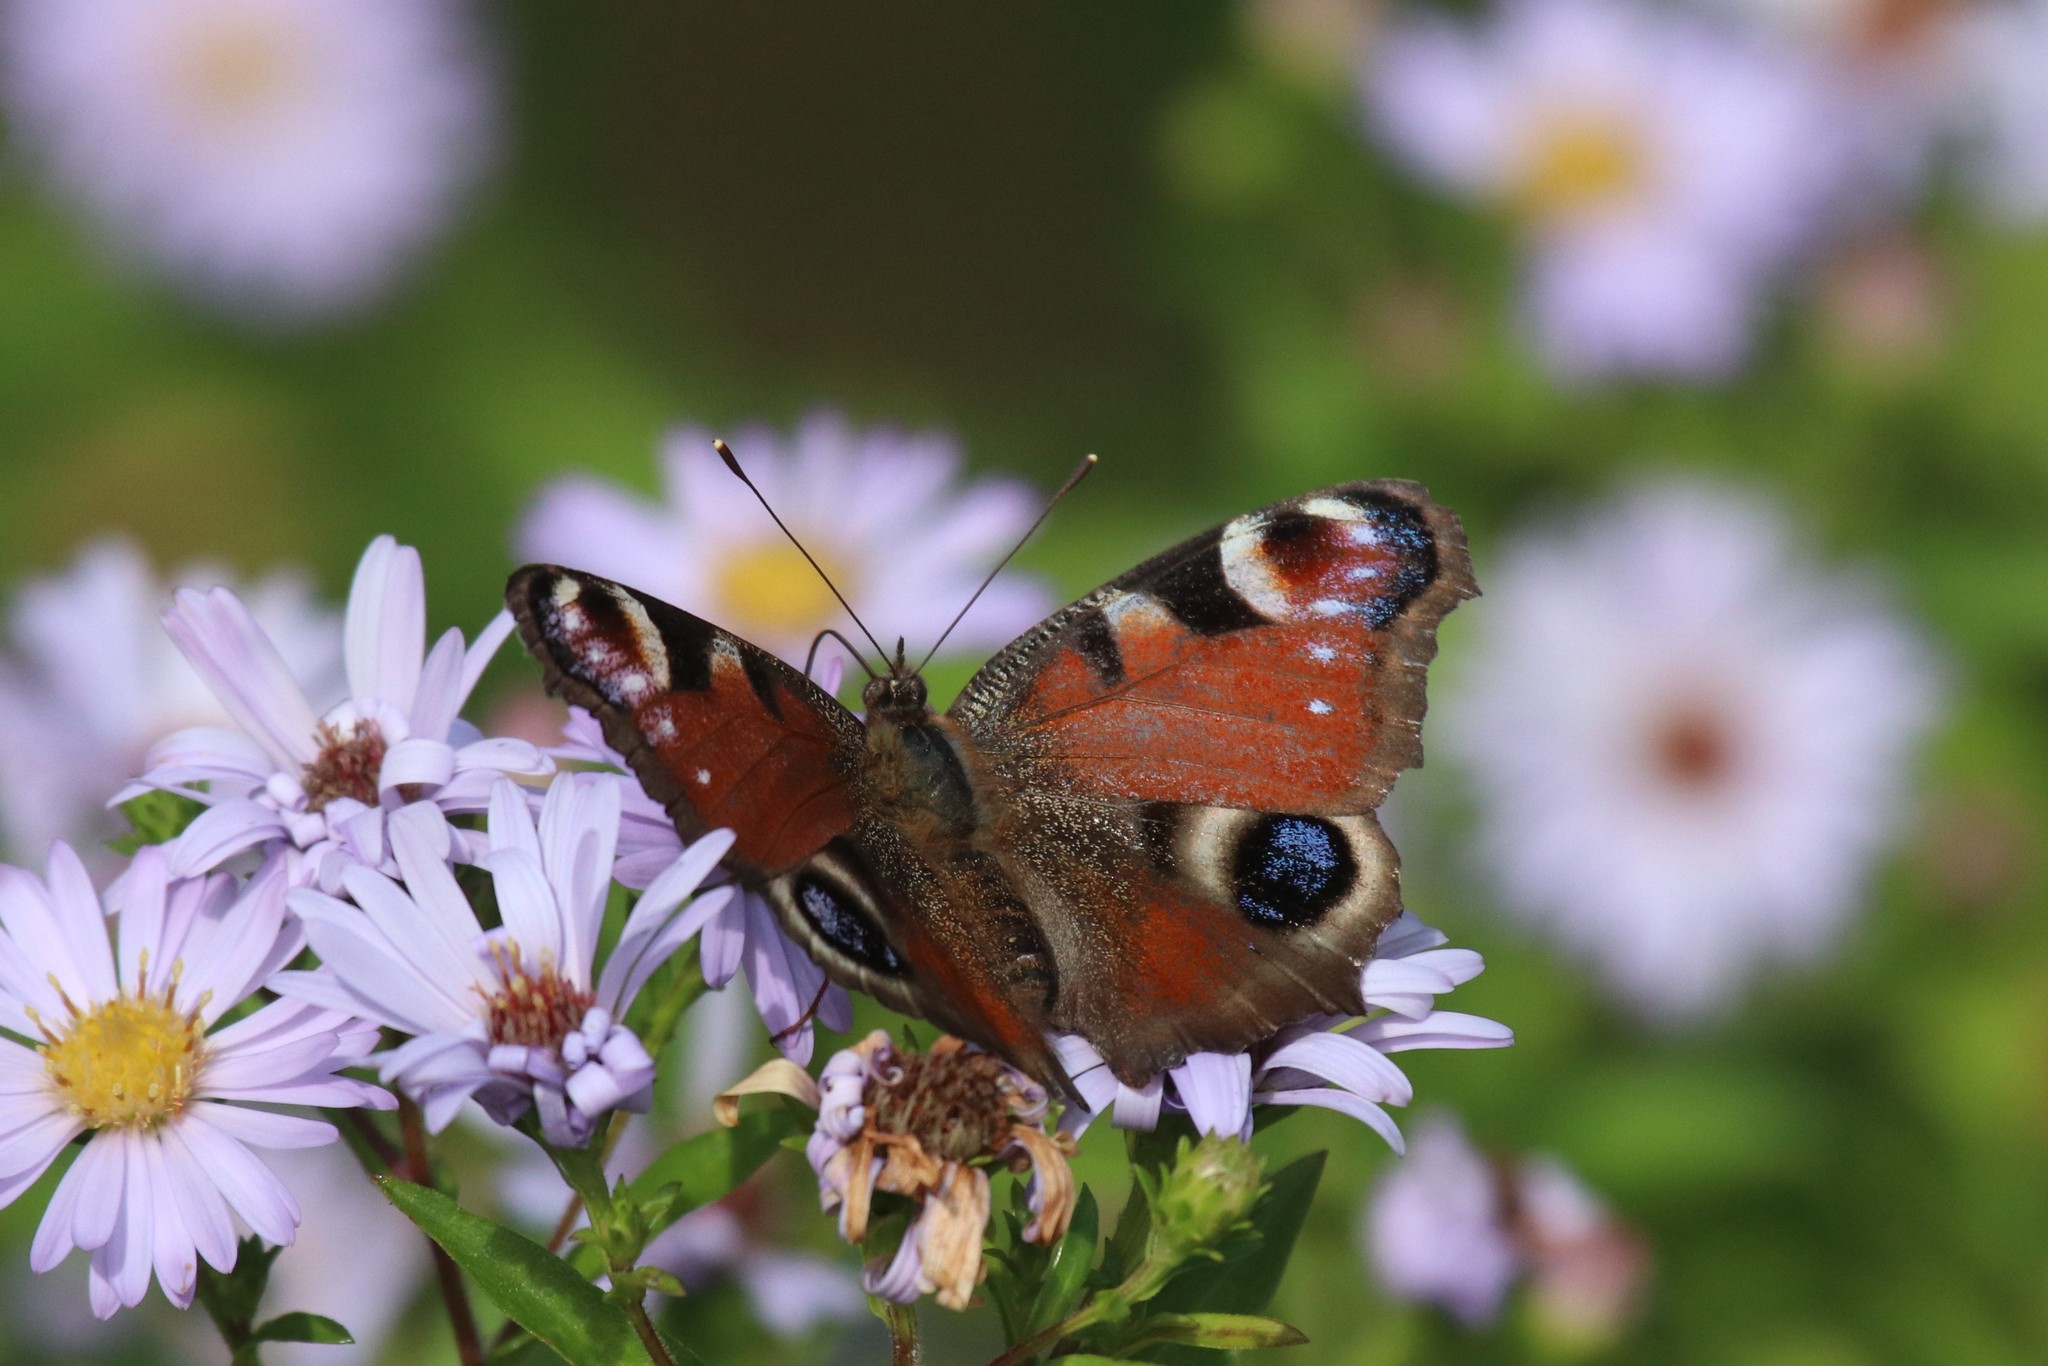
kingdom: Animalia
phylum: Arthropoda
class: Insecta
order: Lepidoptera
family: Nymphalidae
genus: Aglais
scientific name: Aglais io
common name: Peacock
